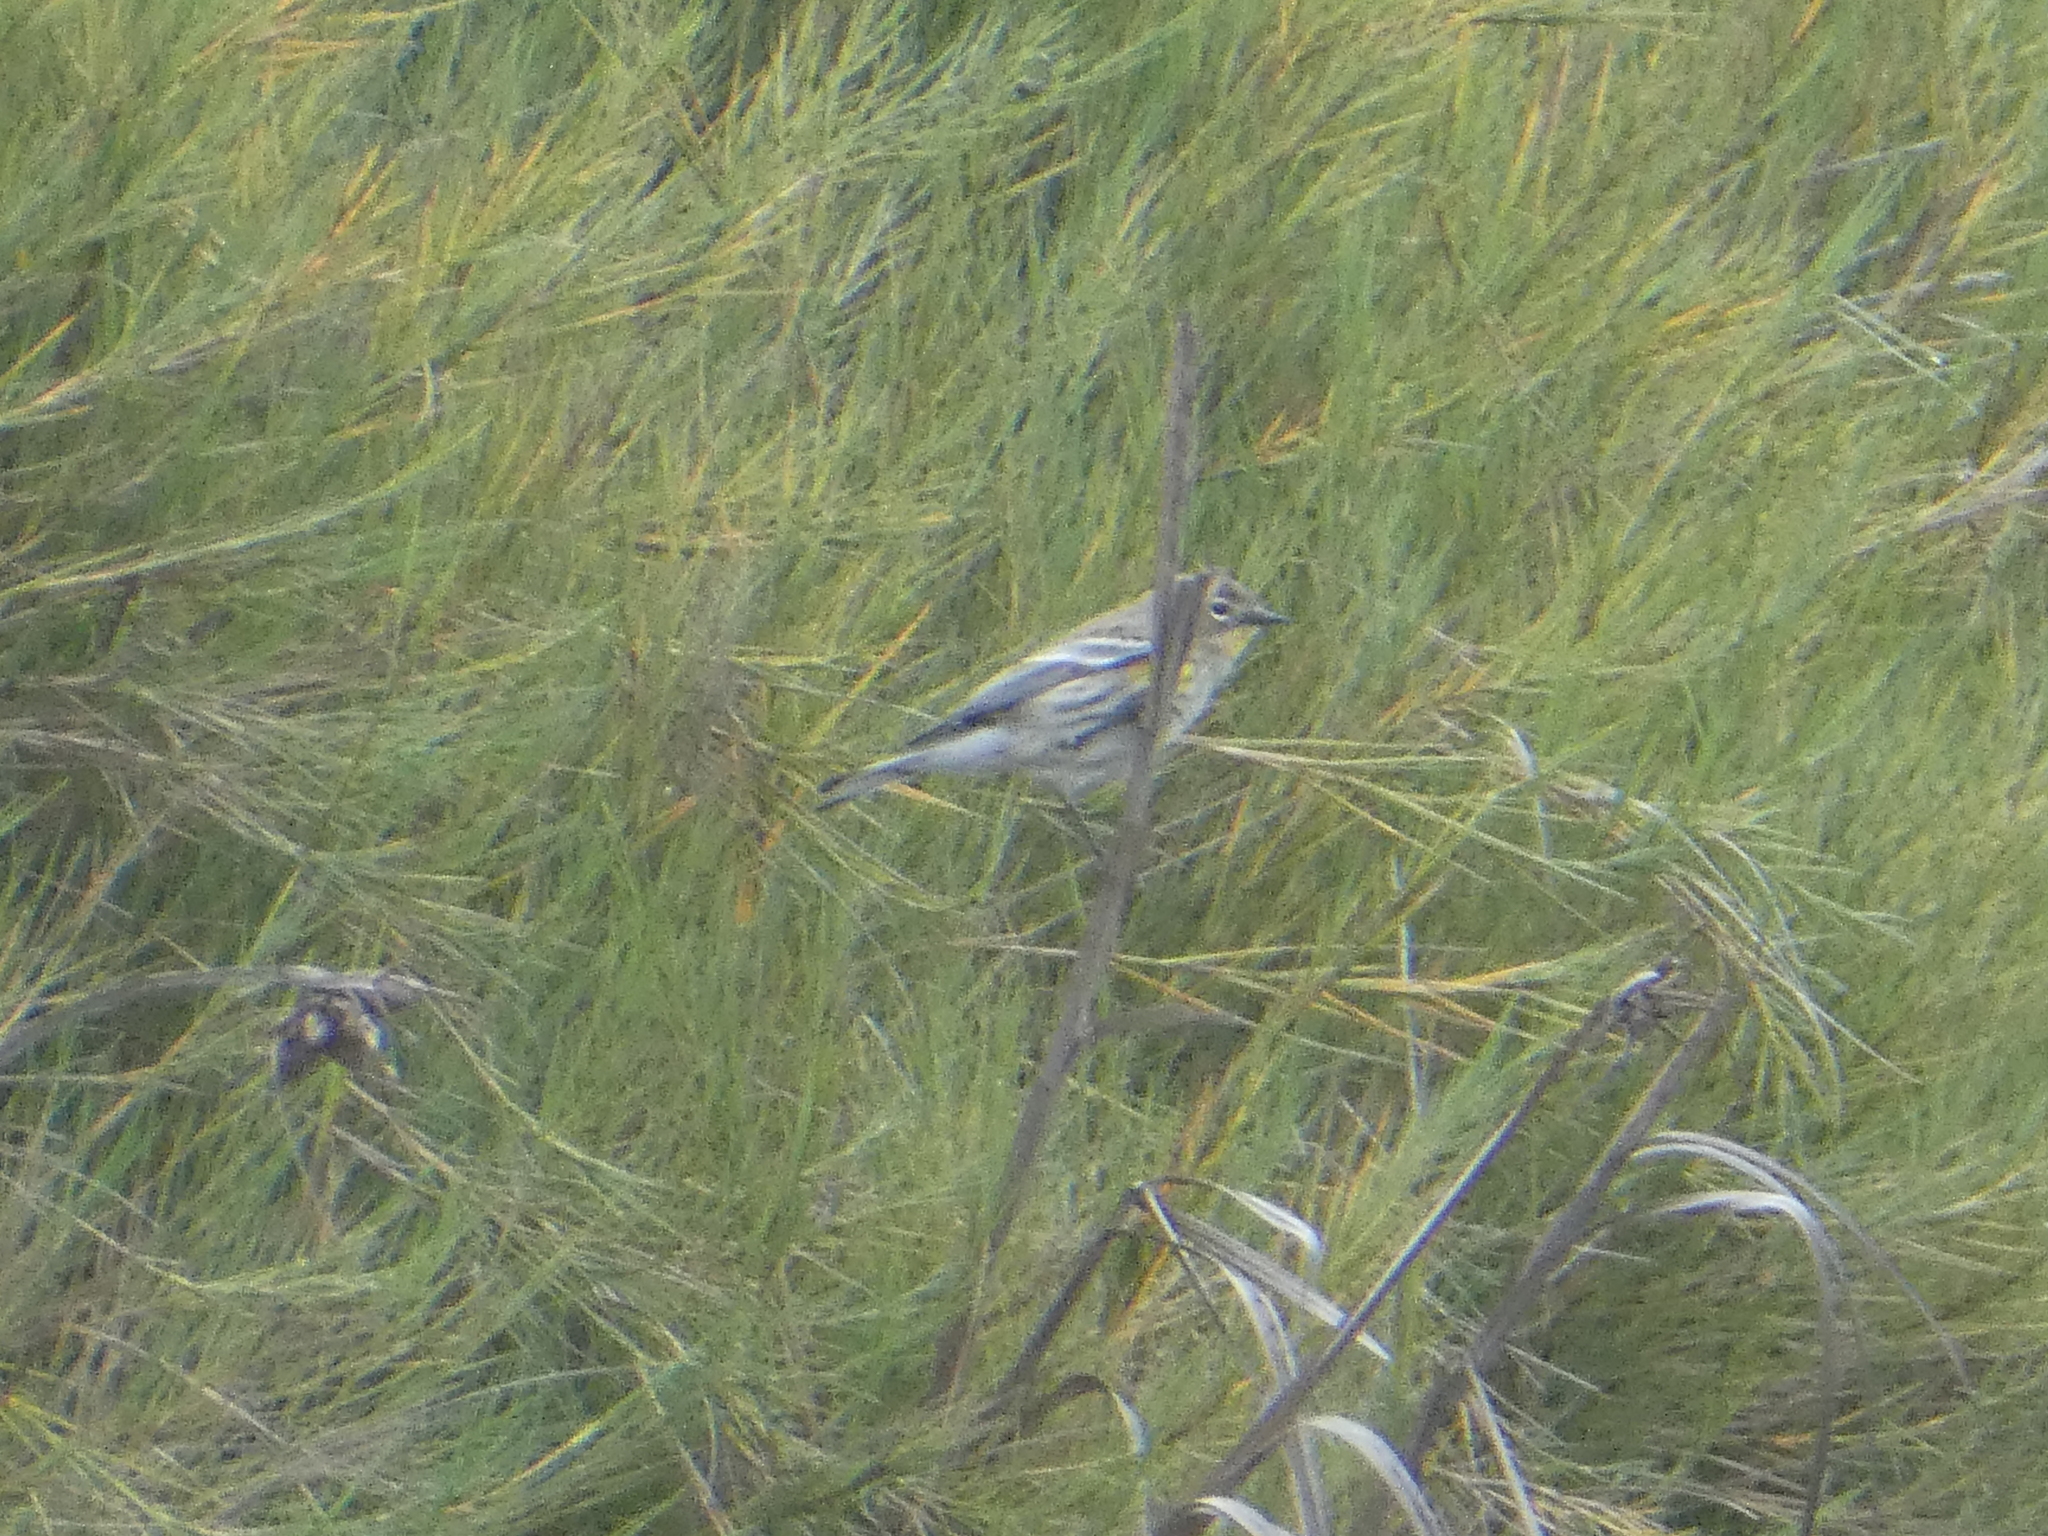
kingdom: Animalia
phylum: Chordata
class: Aves
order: Passeriformes
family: Parulidae
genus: Setophaga
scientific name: Setophaga coronata
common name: Myrtle warbler
